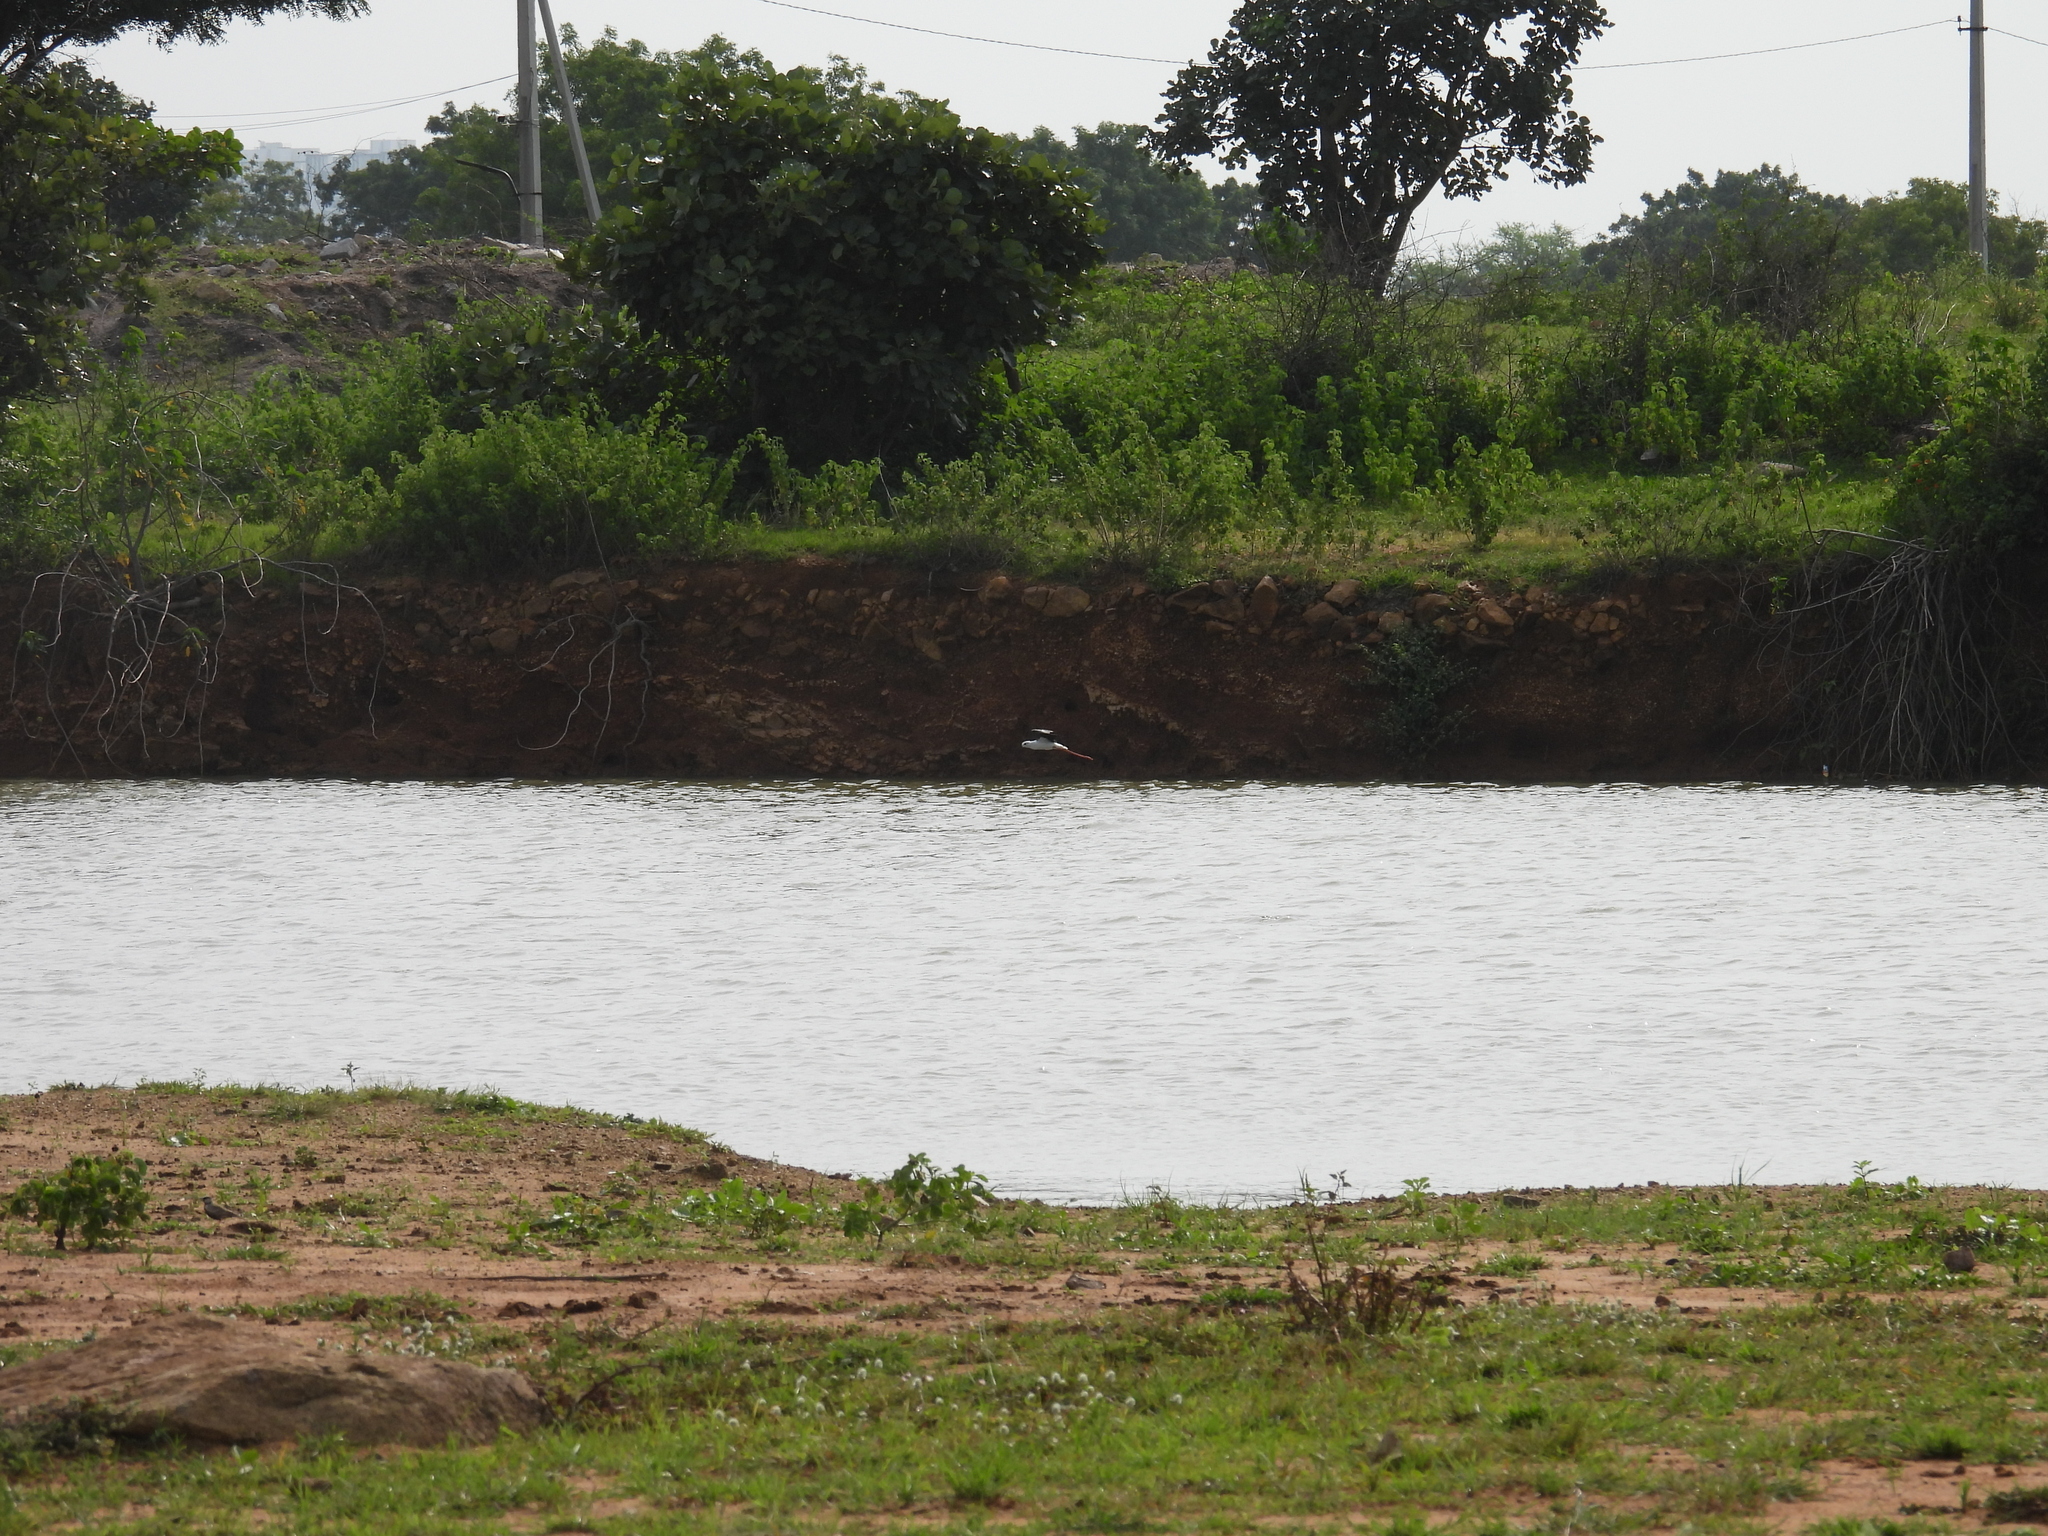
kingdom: Animalia
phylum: Chordata
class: Aves
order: Charadriiformes
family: Recurvirostridae
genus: Himantopus
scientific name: Himantopus himantopus
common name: Black-winged stilt
